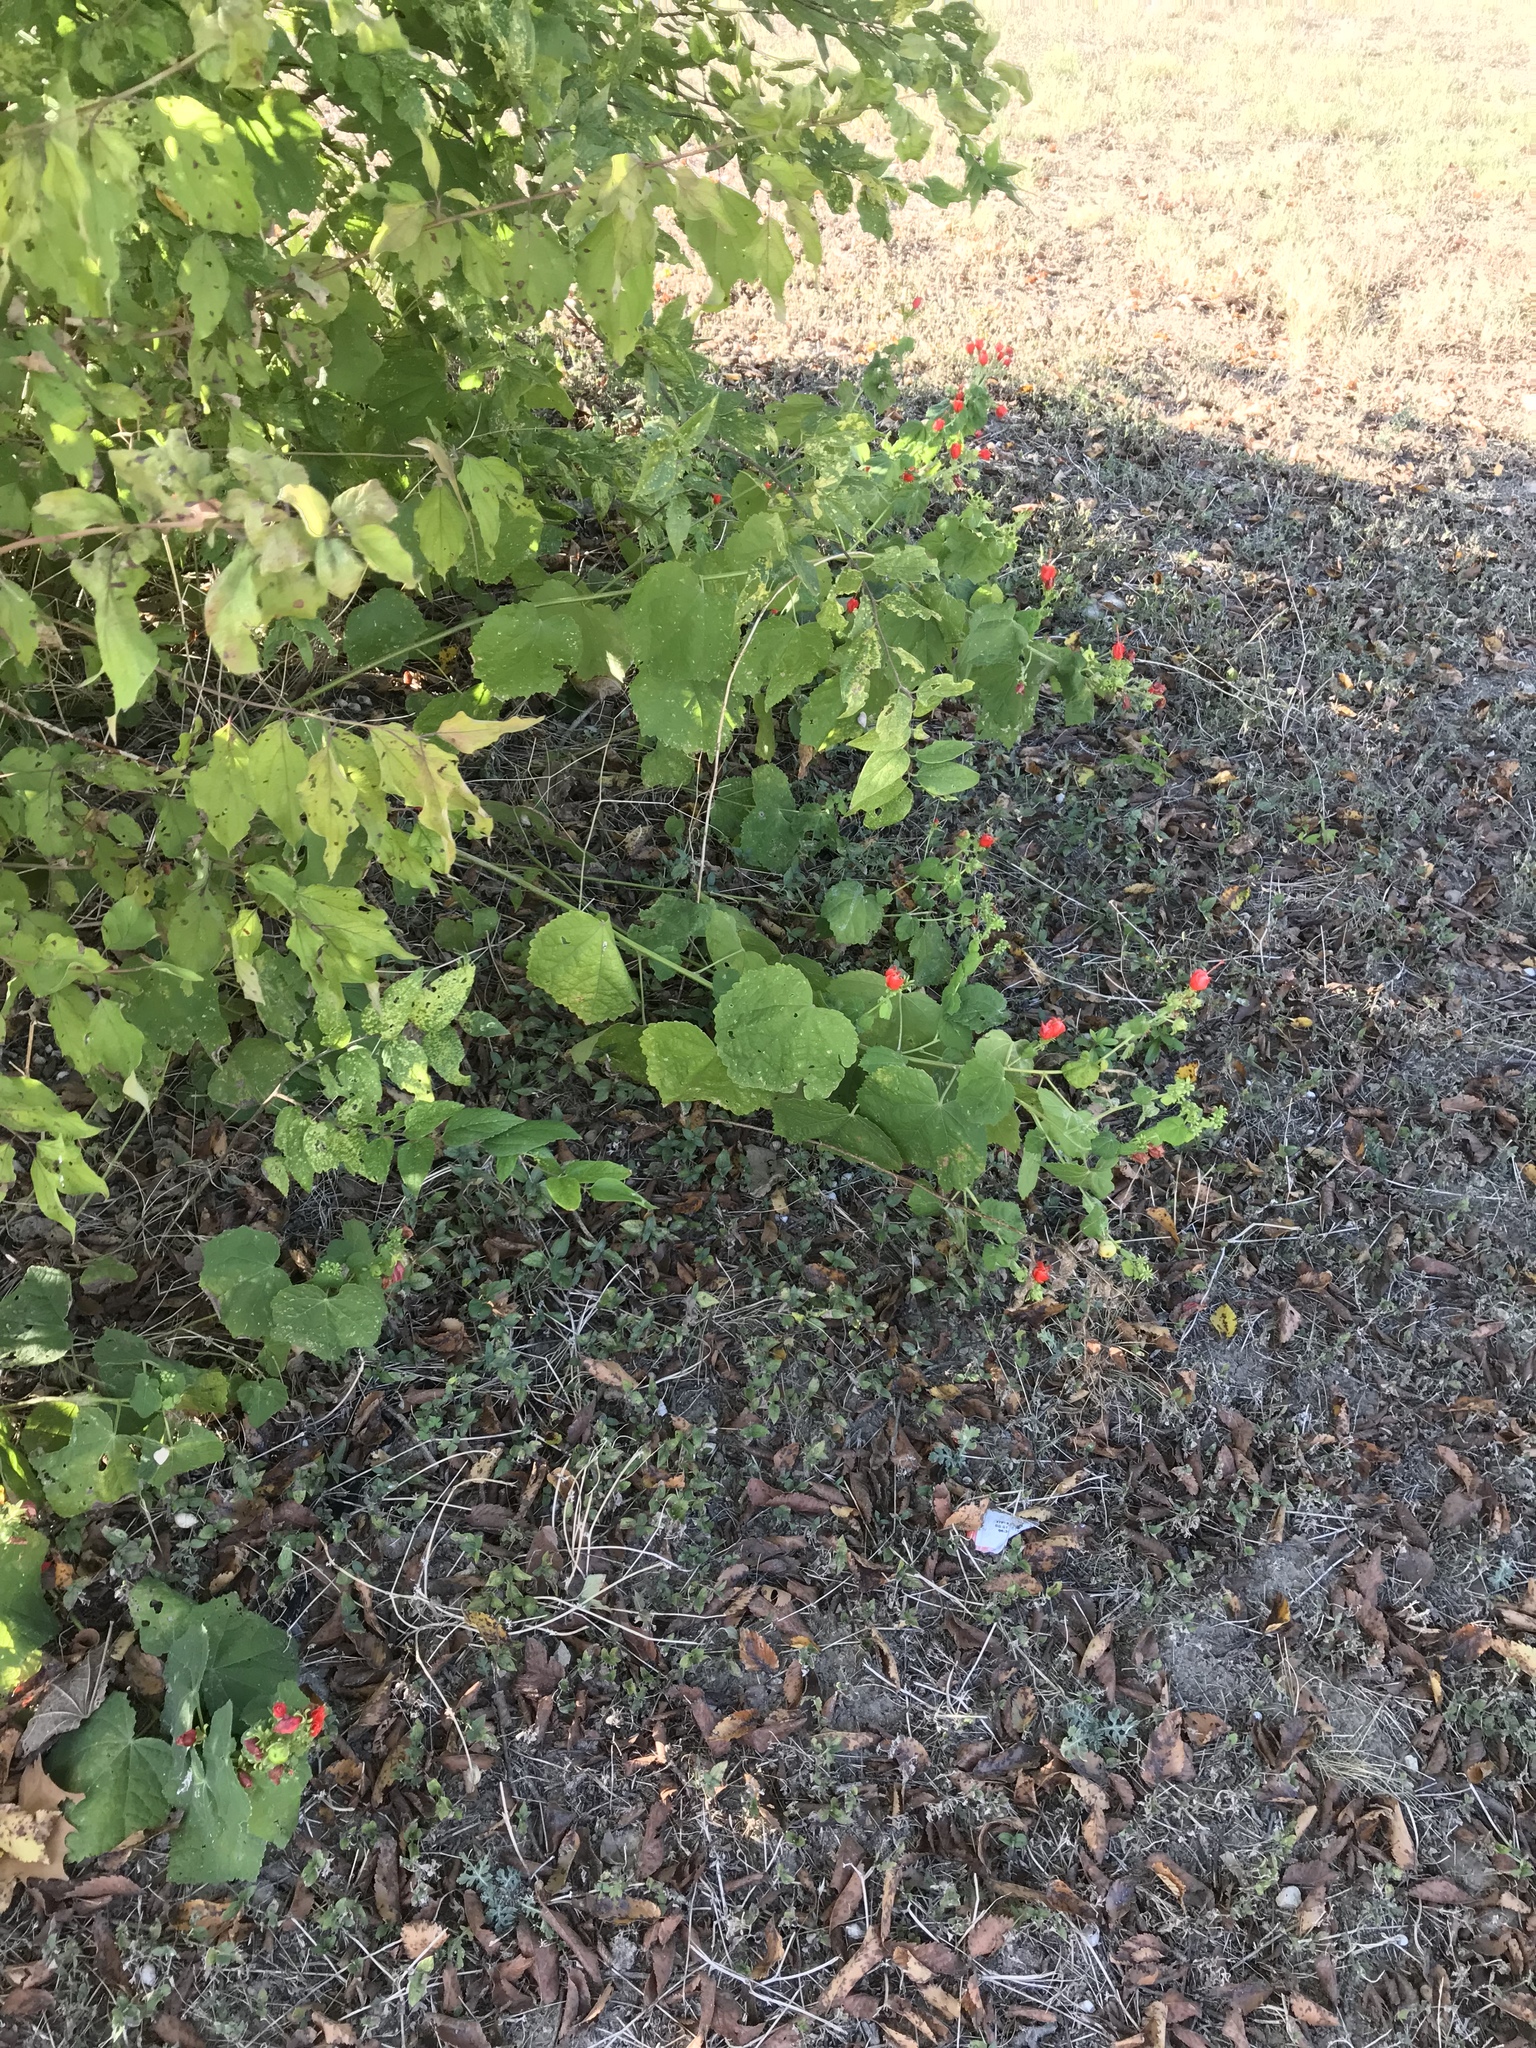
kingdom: Plantae
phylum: Tracheophyta
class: Magnoliopsida
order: Malvales
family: Malvaceae
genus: Malvaviscus
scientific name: Malvaviscus arboreus
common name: Wax mallow
